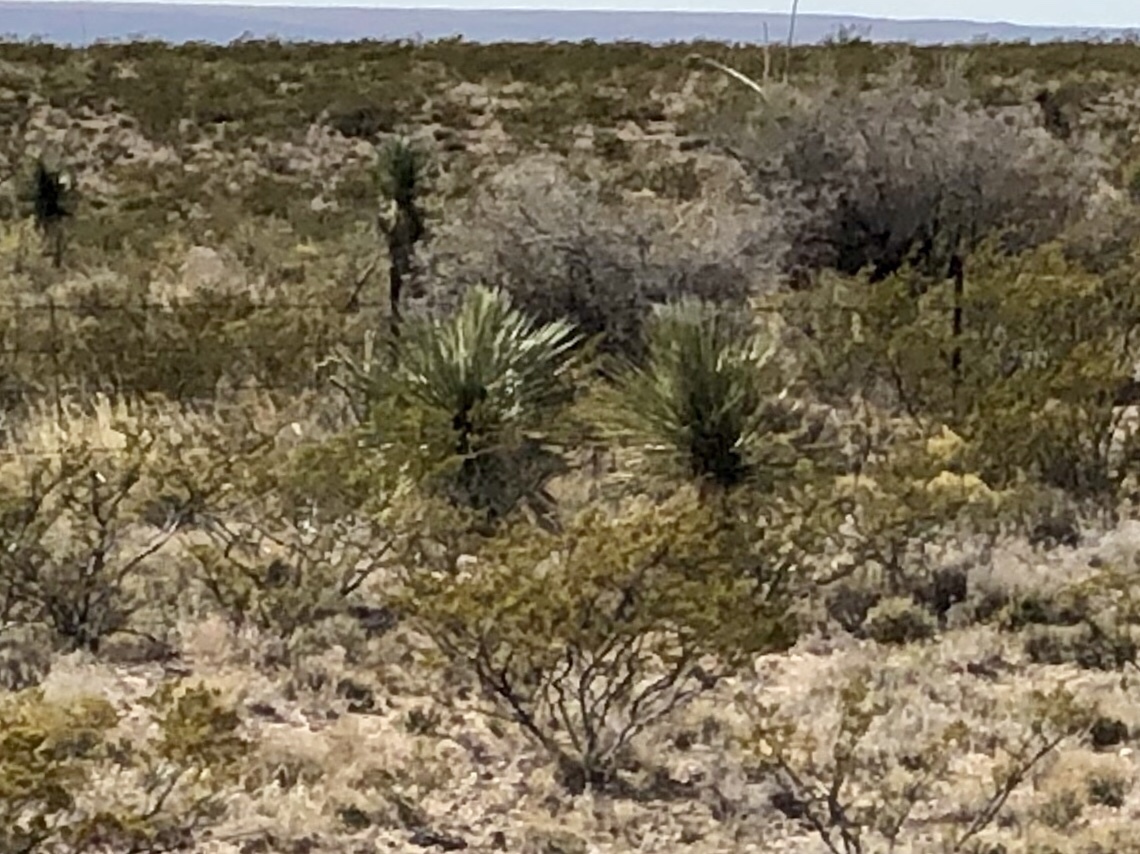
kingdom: Plantae
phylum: Tracheophyta
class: Liliopsida
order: Asparagales
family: Asparagaceae
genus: Yucca
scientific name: Yucca elata
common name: Palmella
